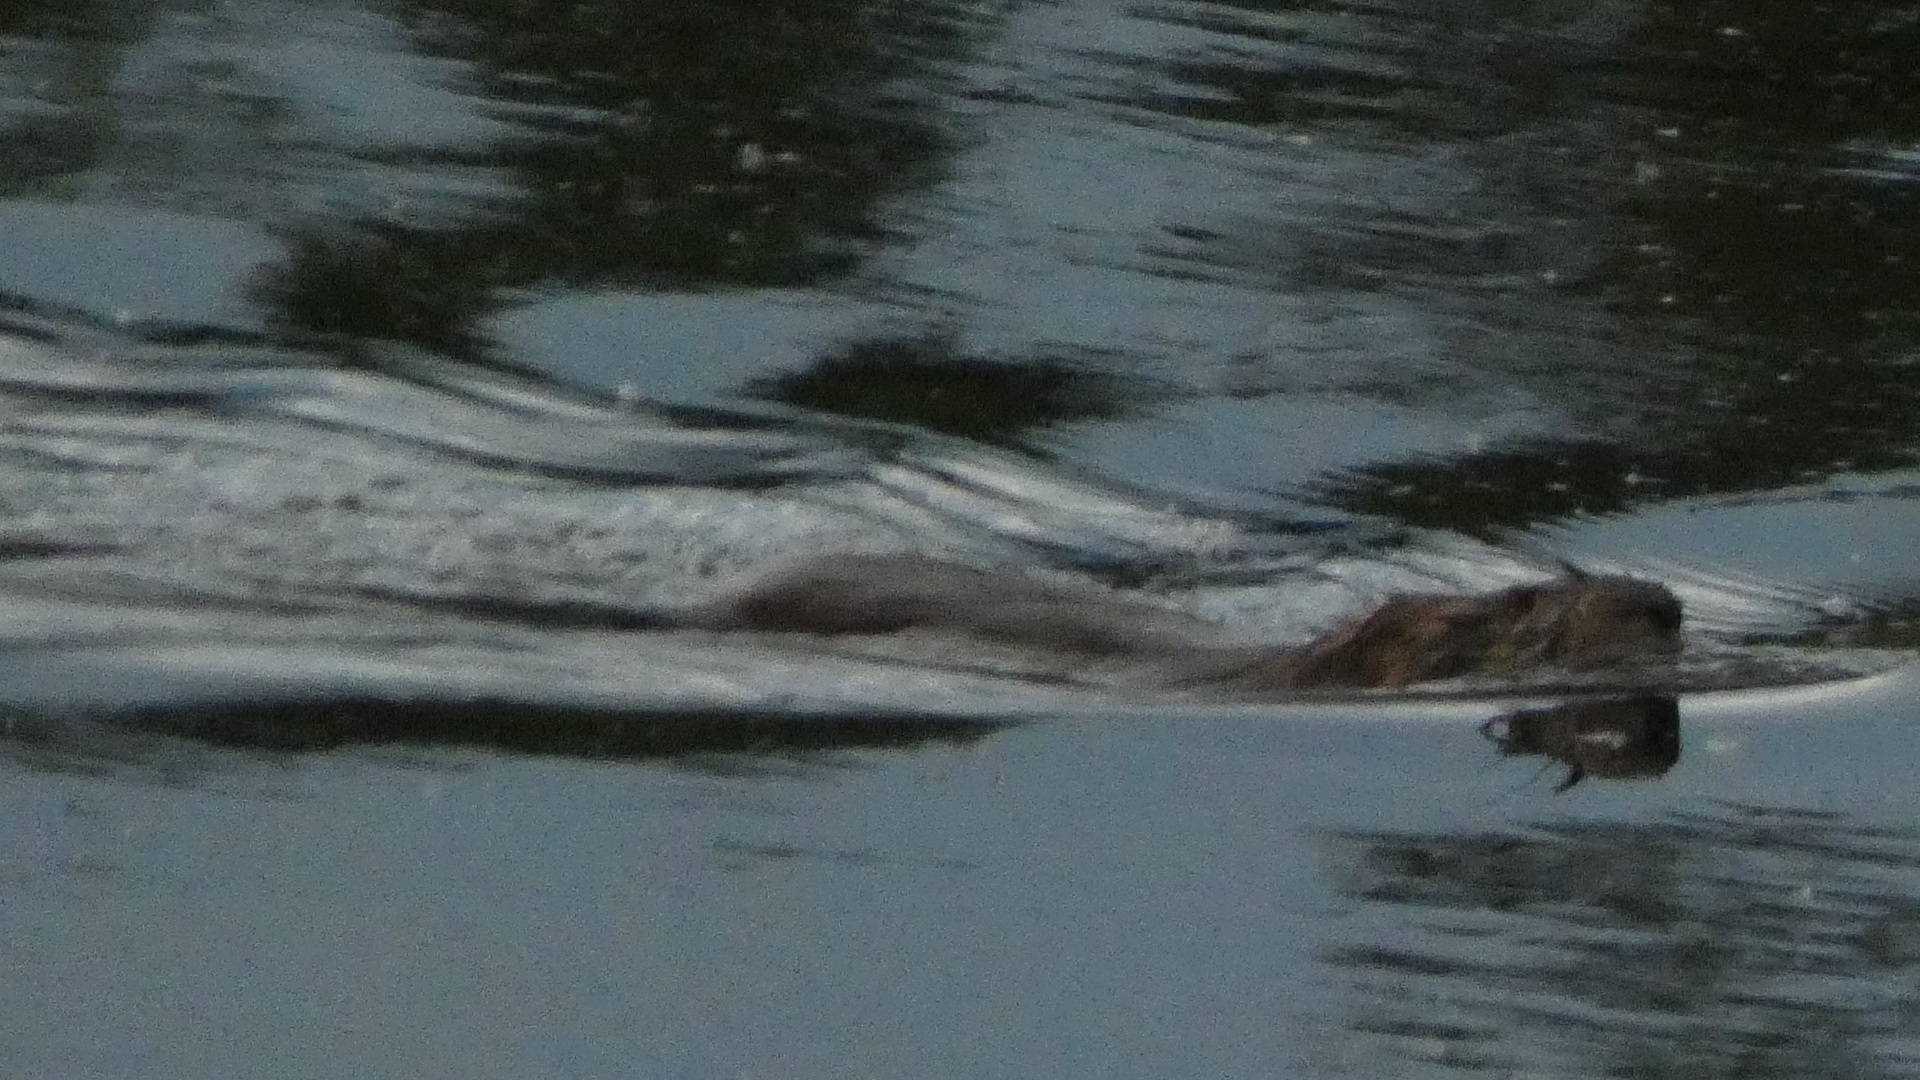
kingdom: Animalia
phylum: Chordata
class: Mammalia
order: Rodentia
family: Cricetidae
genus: Ondatra
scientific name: Ondatra zibethicus
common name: Muskrat
